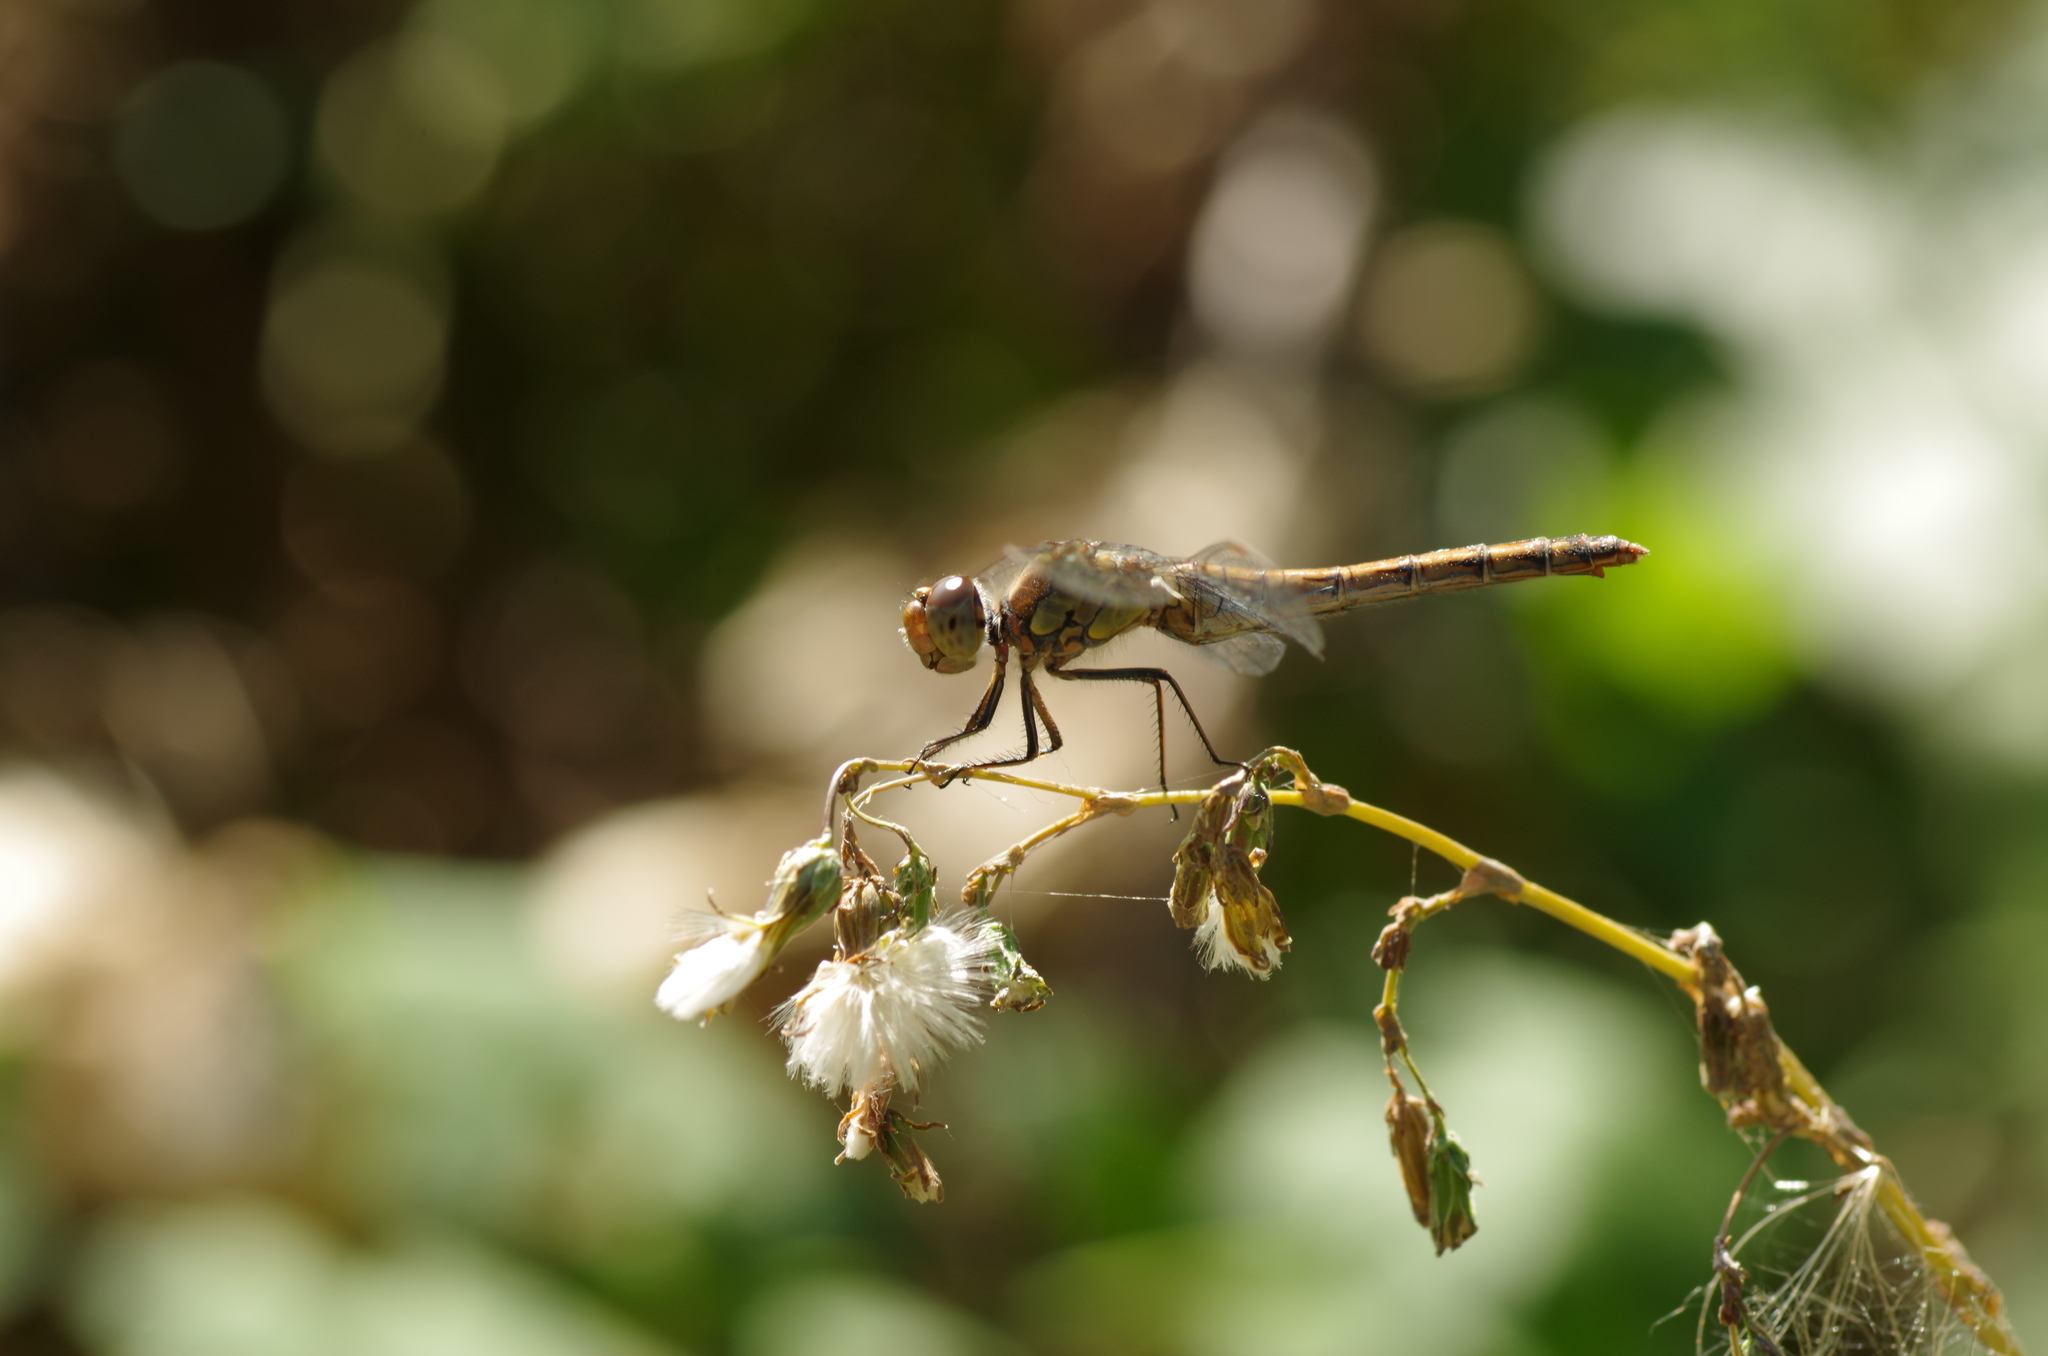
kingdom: Animalia
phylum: Arthropoda
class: Insecta
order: Odonata
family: Libellulidae
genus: Sympetrum
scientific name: Sympetrum striolatum
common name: Common darter
